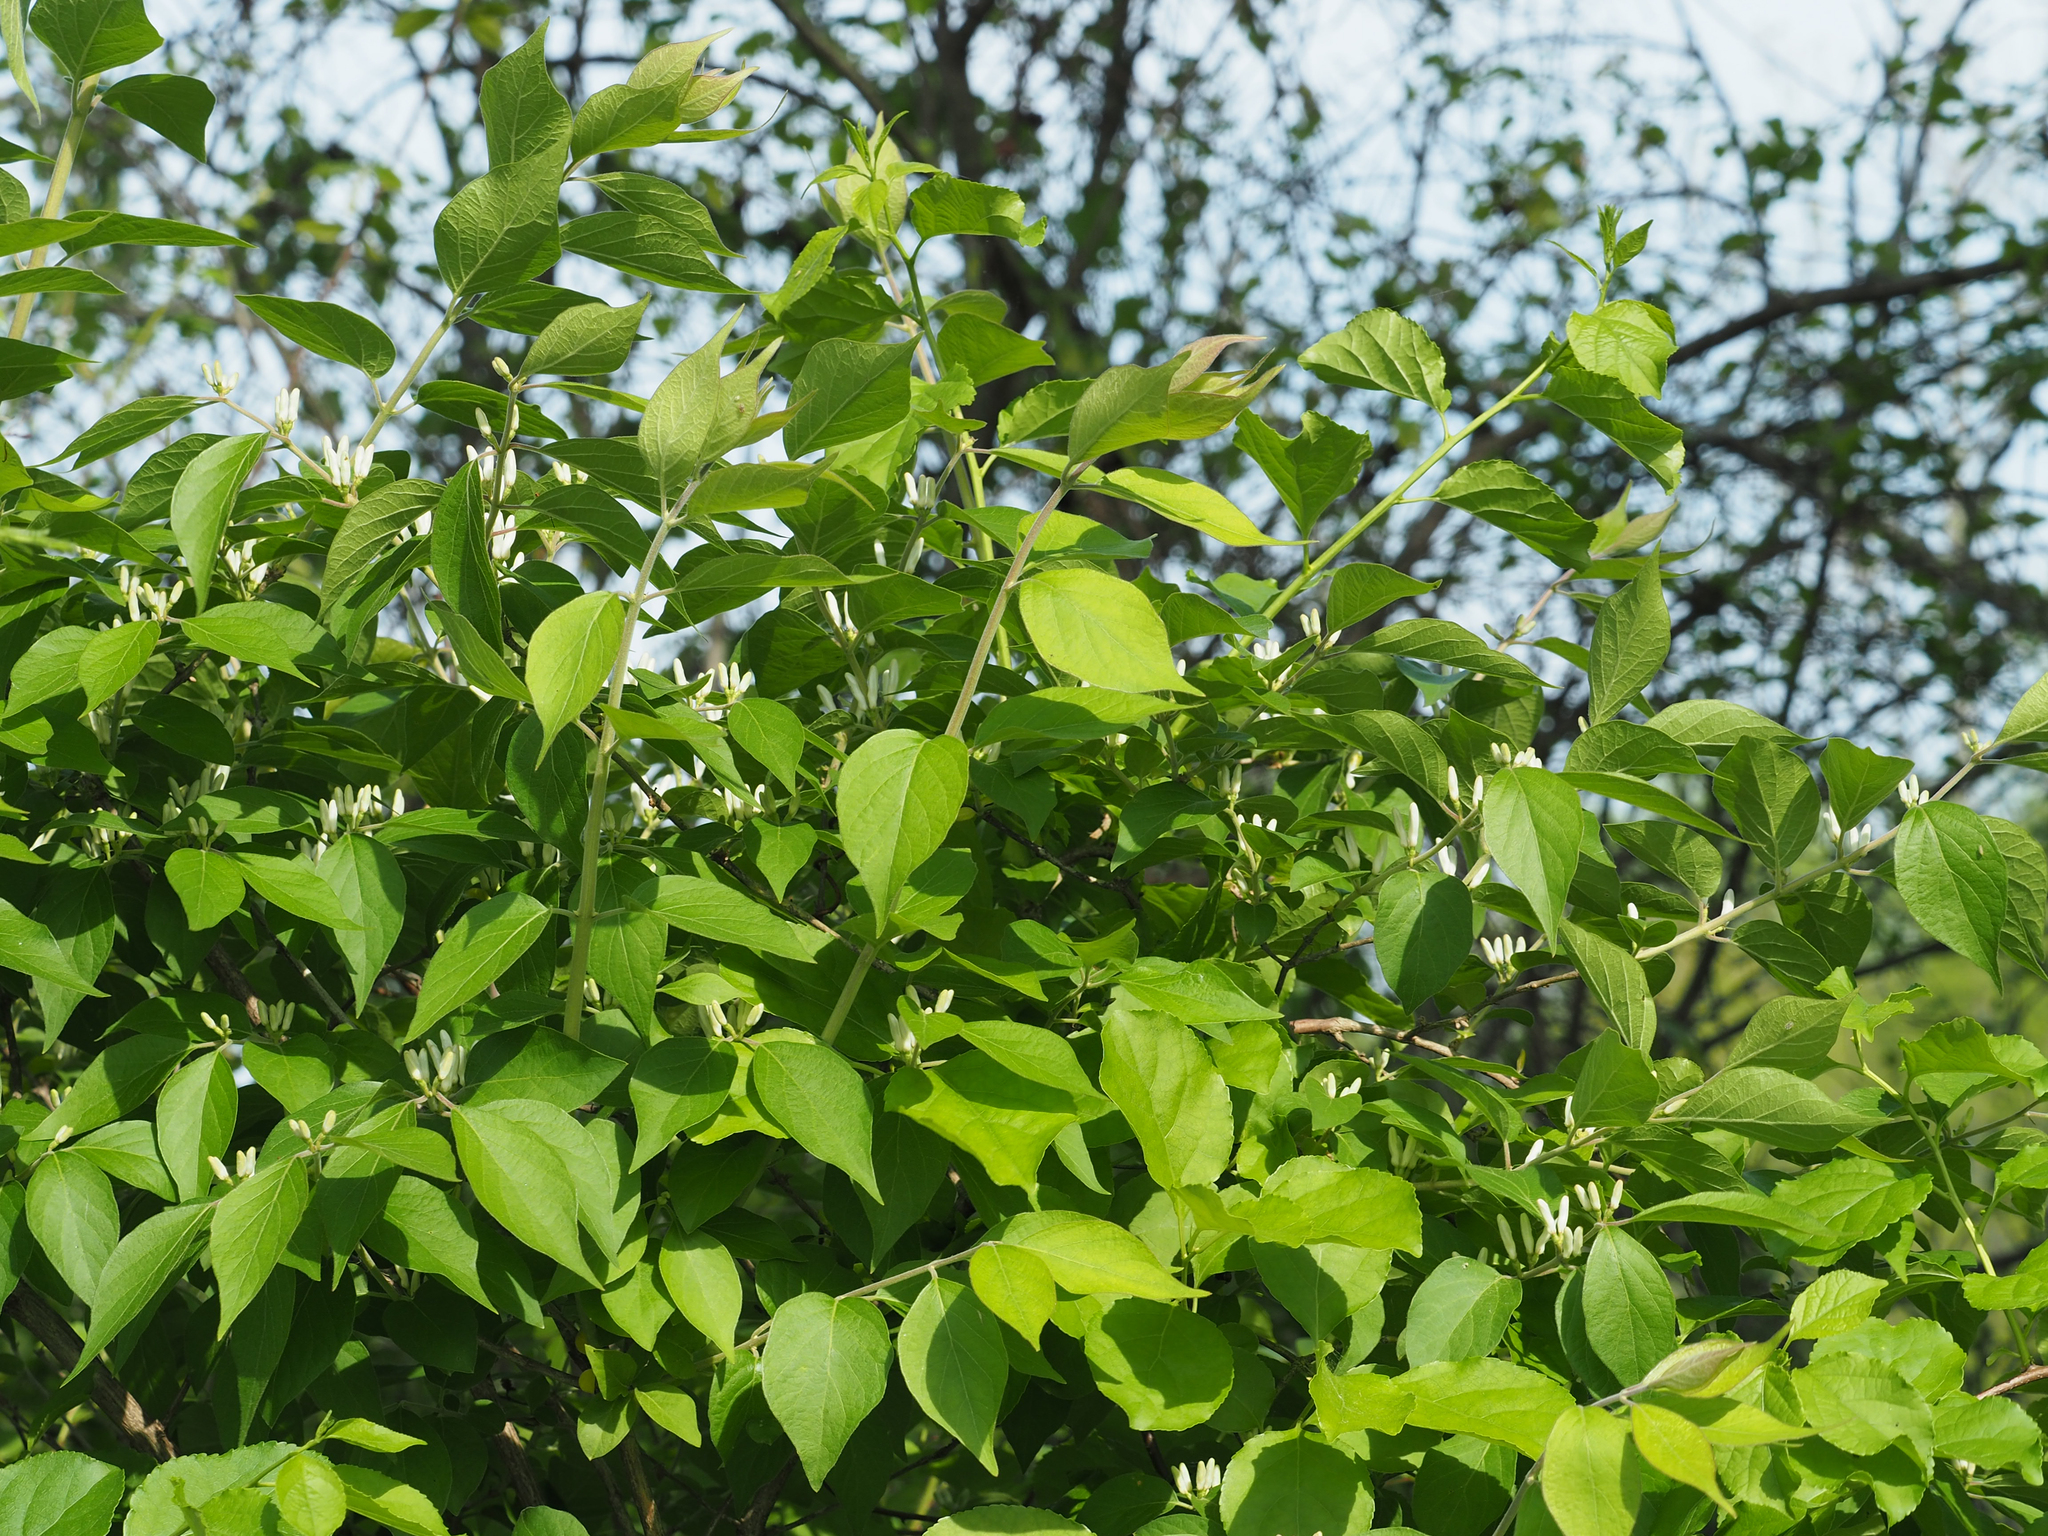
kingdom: Plantae
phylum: Tracheophyta
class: Magnoliopsida
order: Dipsacales
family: Caprifoliaceae
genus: Lonicera
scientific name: Lonicera maackii
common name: Amur honeysuckle
